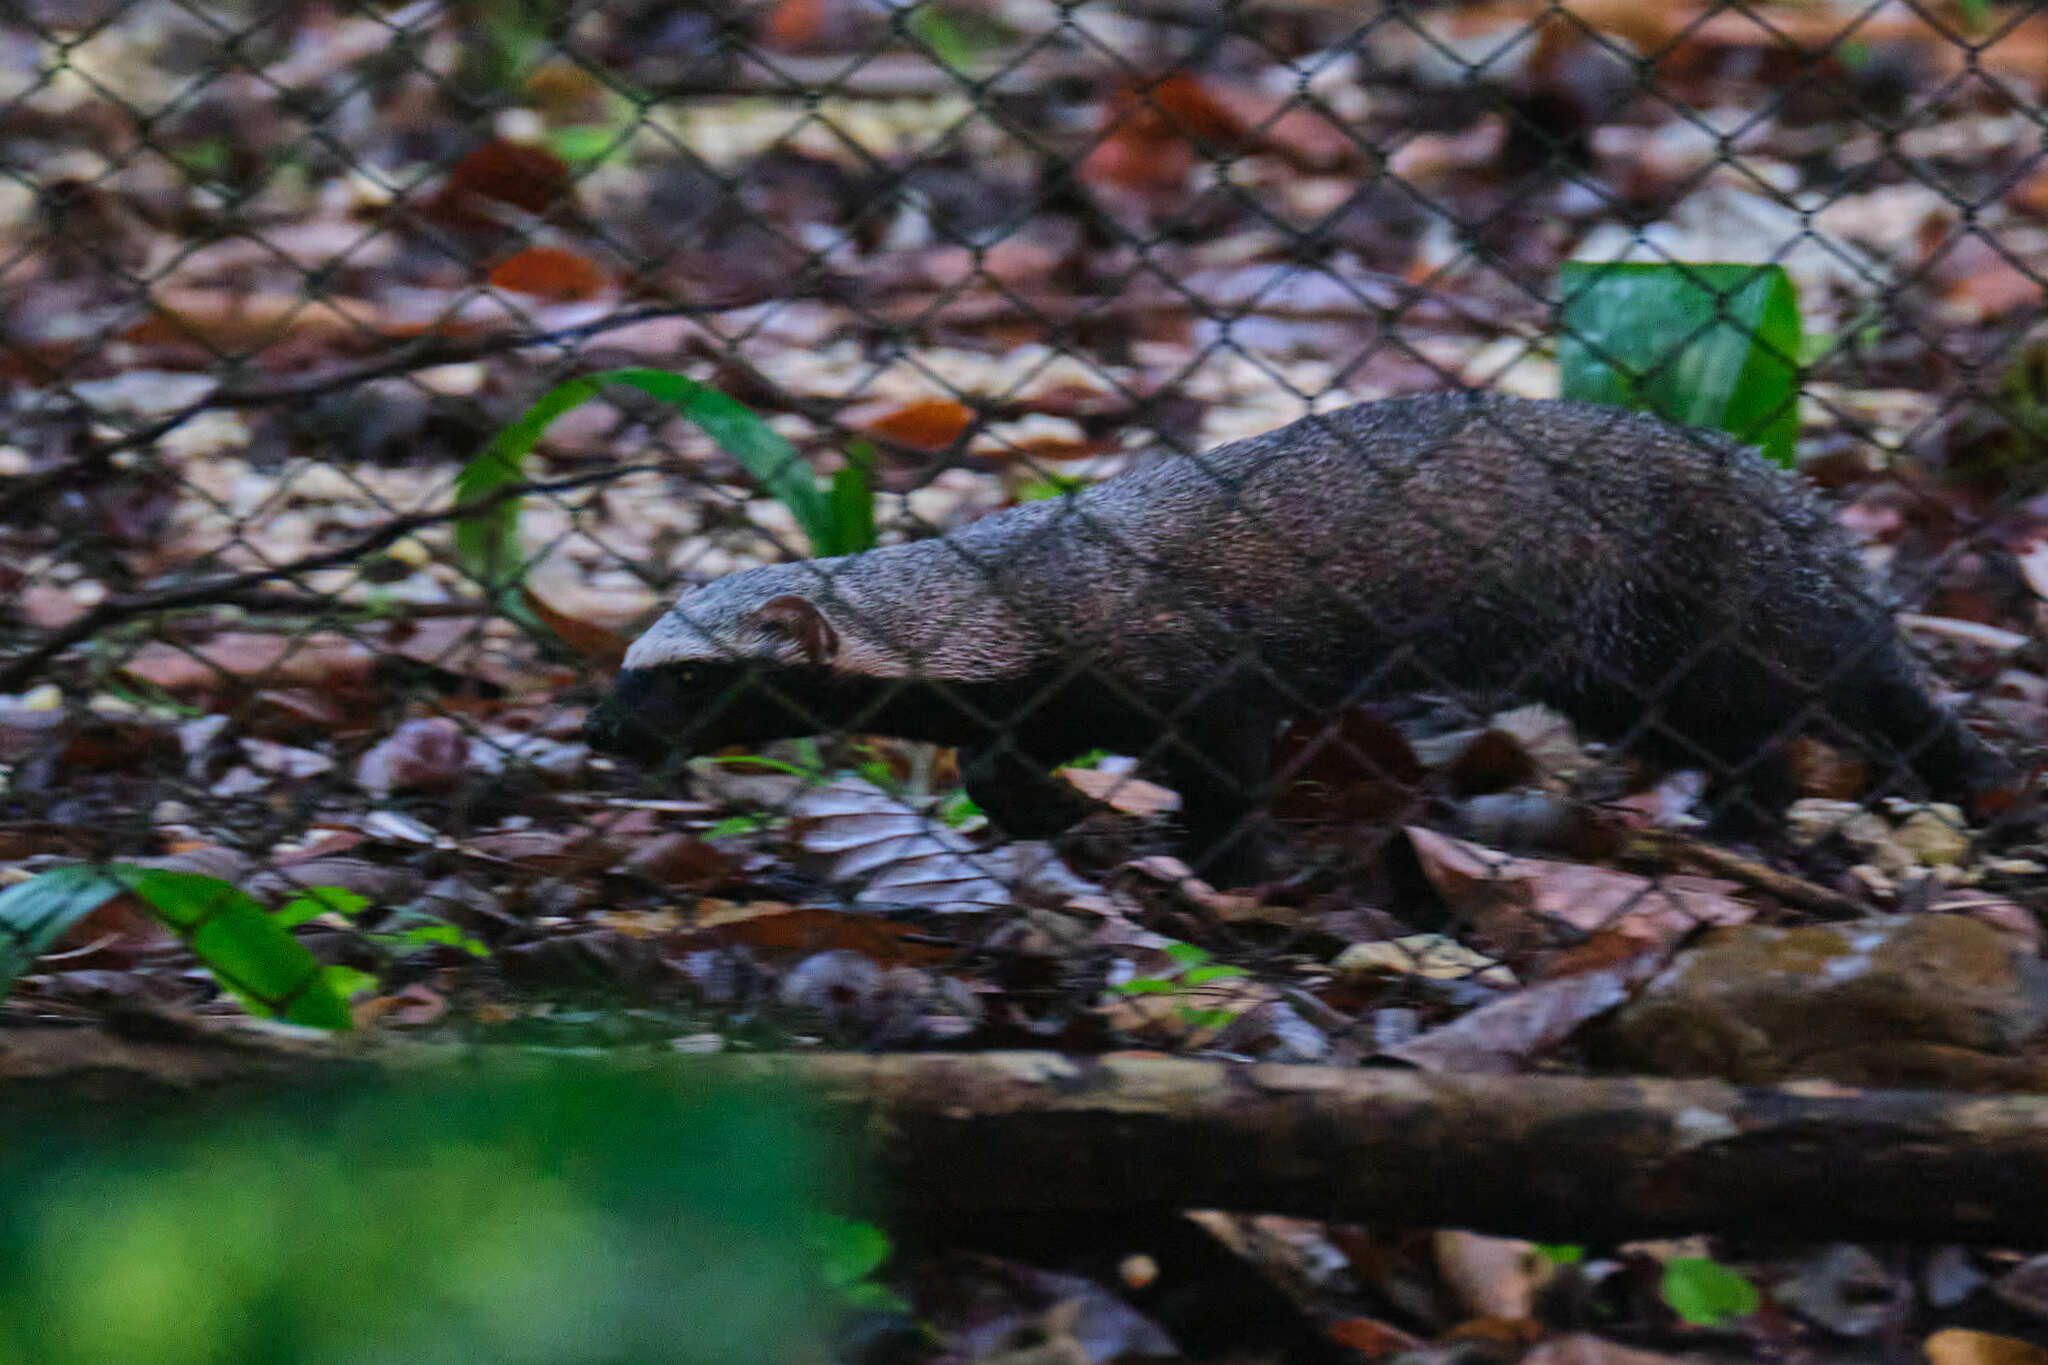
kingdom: Animalia
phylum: Chordata
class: Mammalia
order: Carnivora
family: Mustelidae
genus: Galictis
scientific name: Galictis vittata
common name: Greater grison
